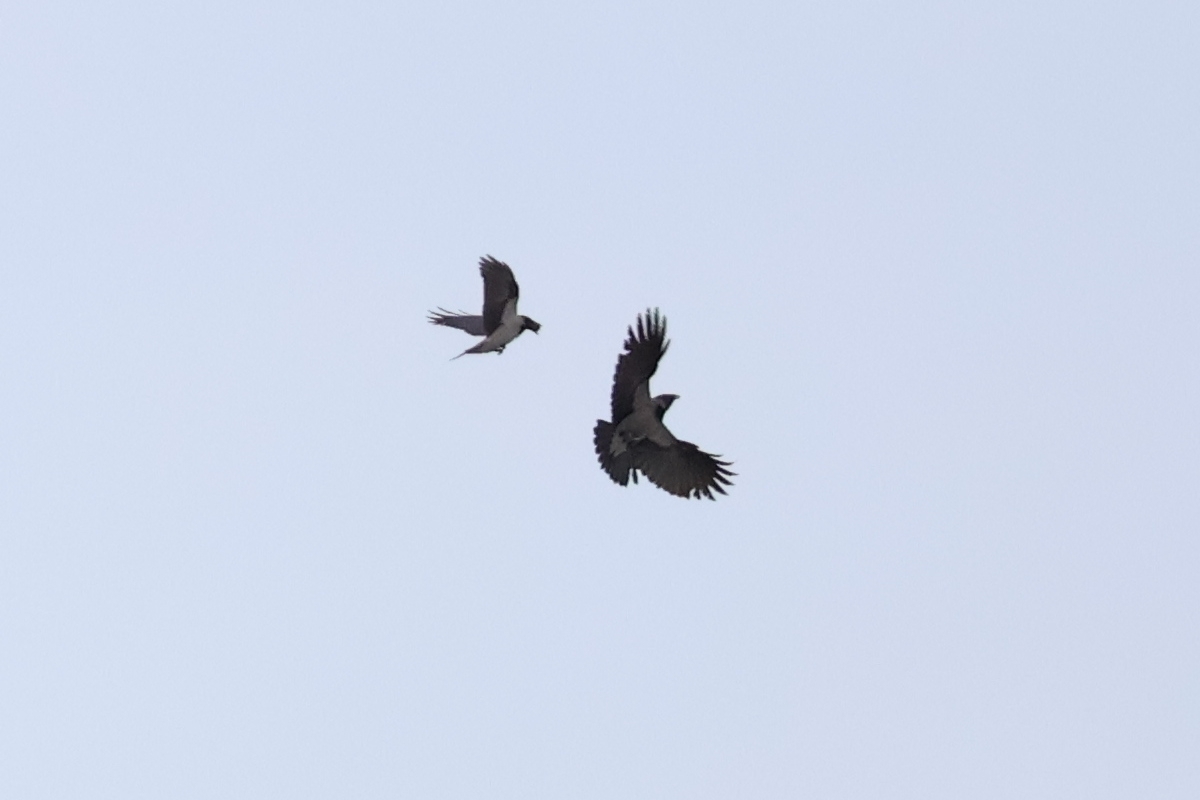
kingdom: Animalia
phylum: Chordata
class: Aves
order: Passeriformes
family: Corvidae
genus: Corvus
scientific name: Corvus cornix
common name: Hooded crow
